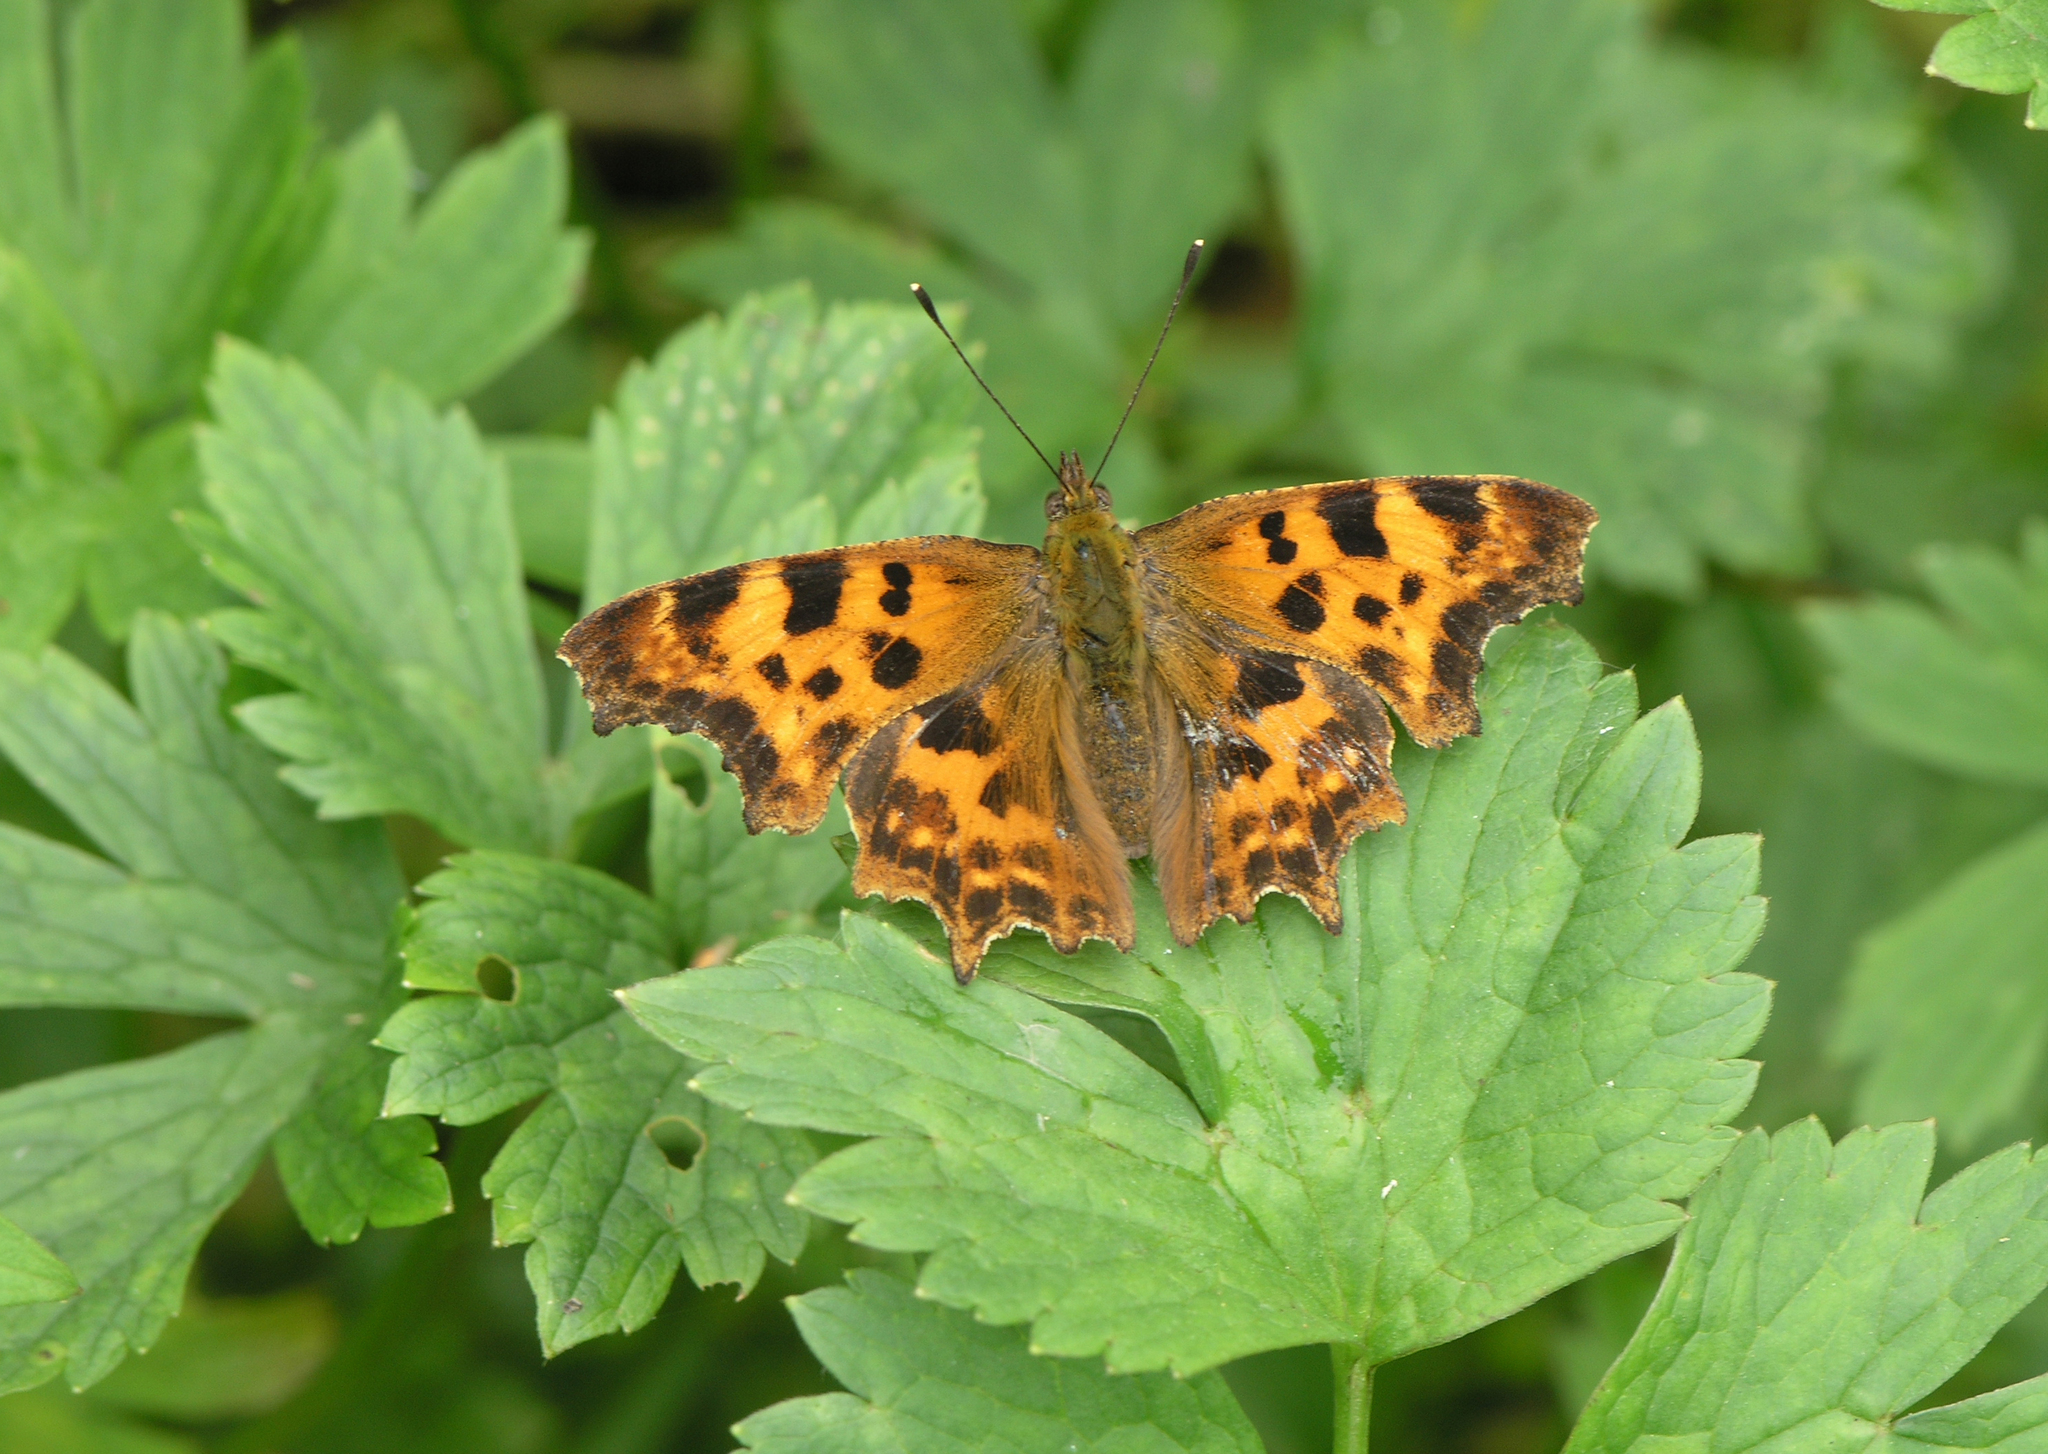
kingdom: Animalia
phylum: Arthropoda
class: Insecta
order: Lepidoptera
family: Nymphalidae
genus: Polygonia
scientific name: Polygonia c-album
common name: Comma
